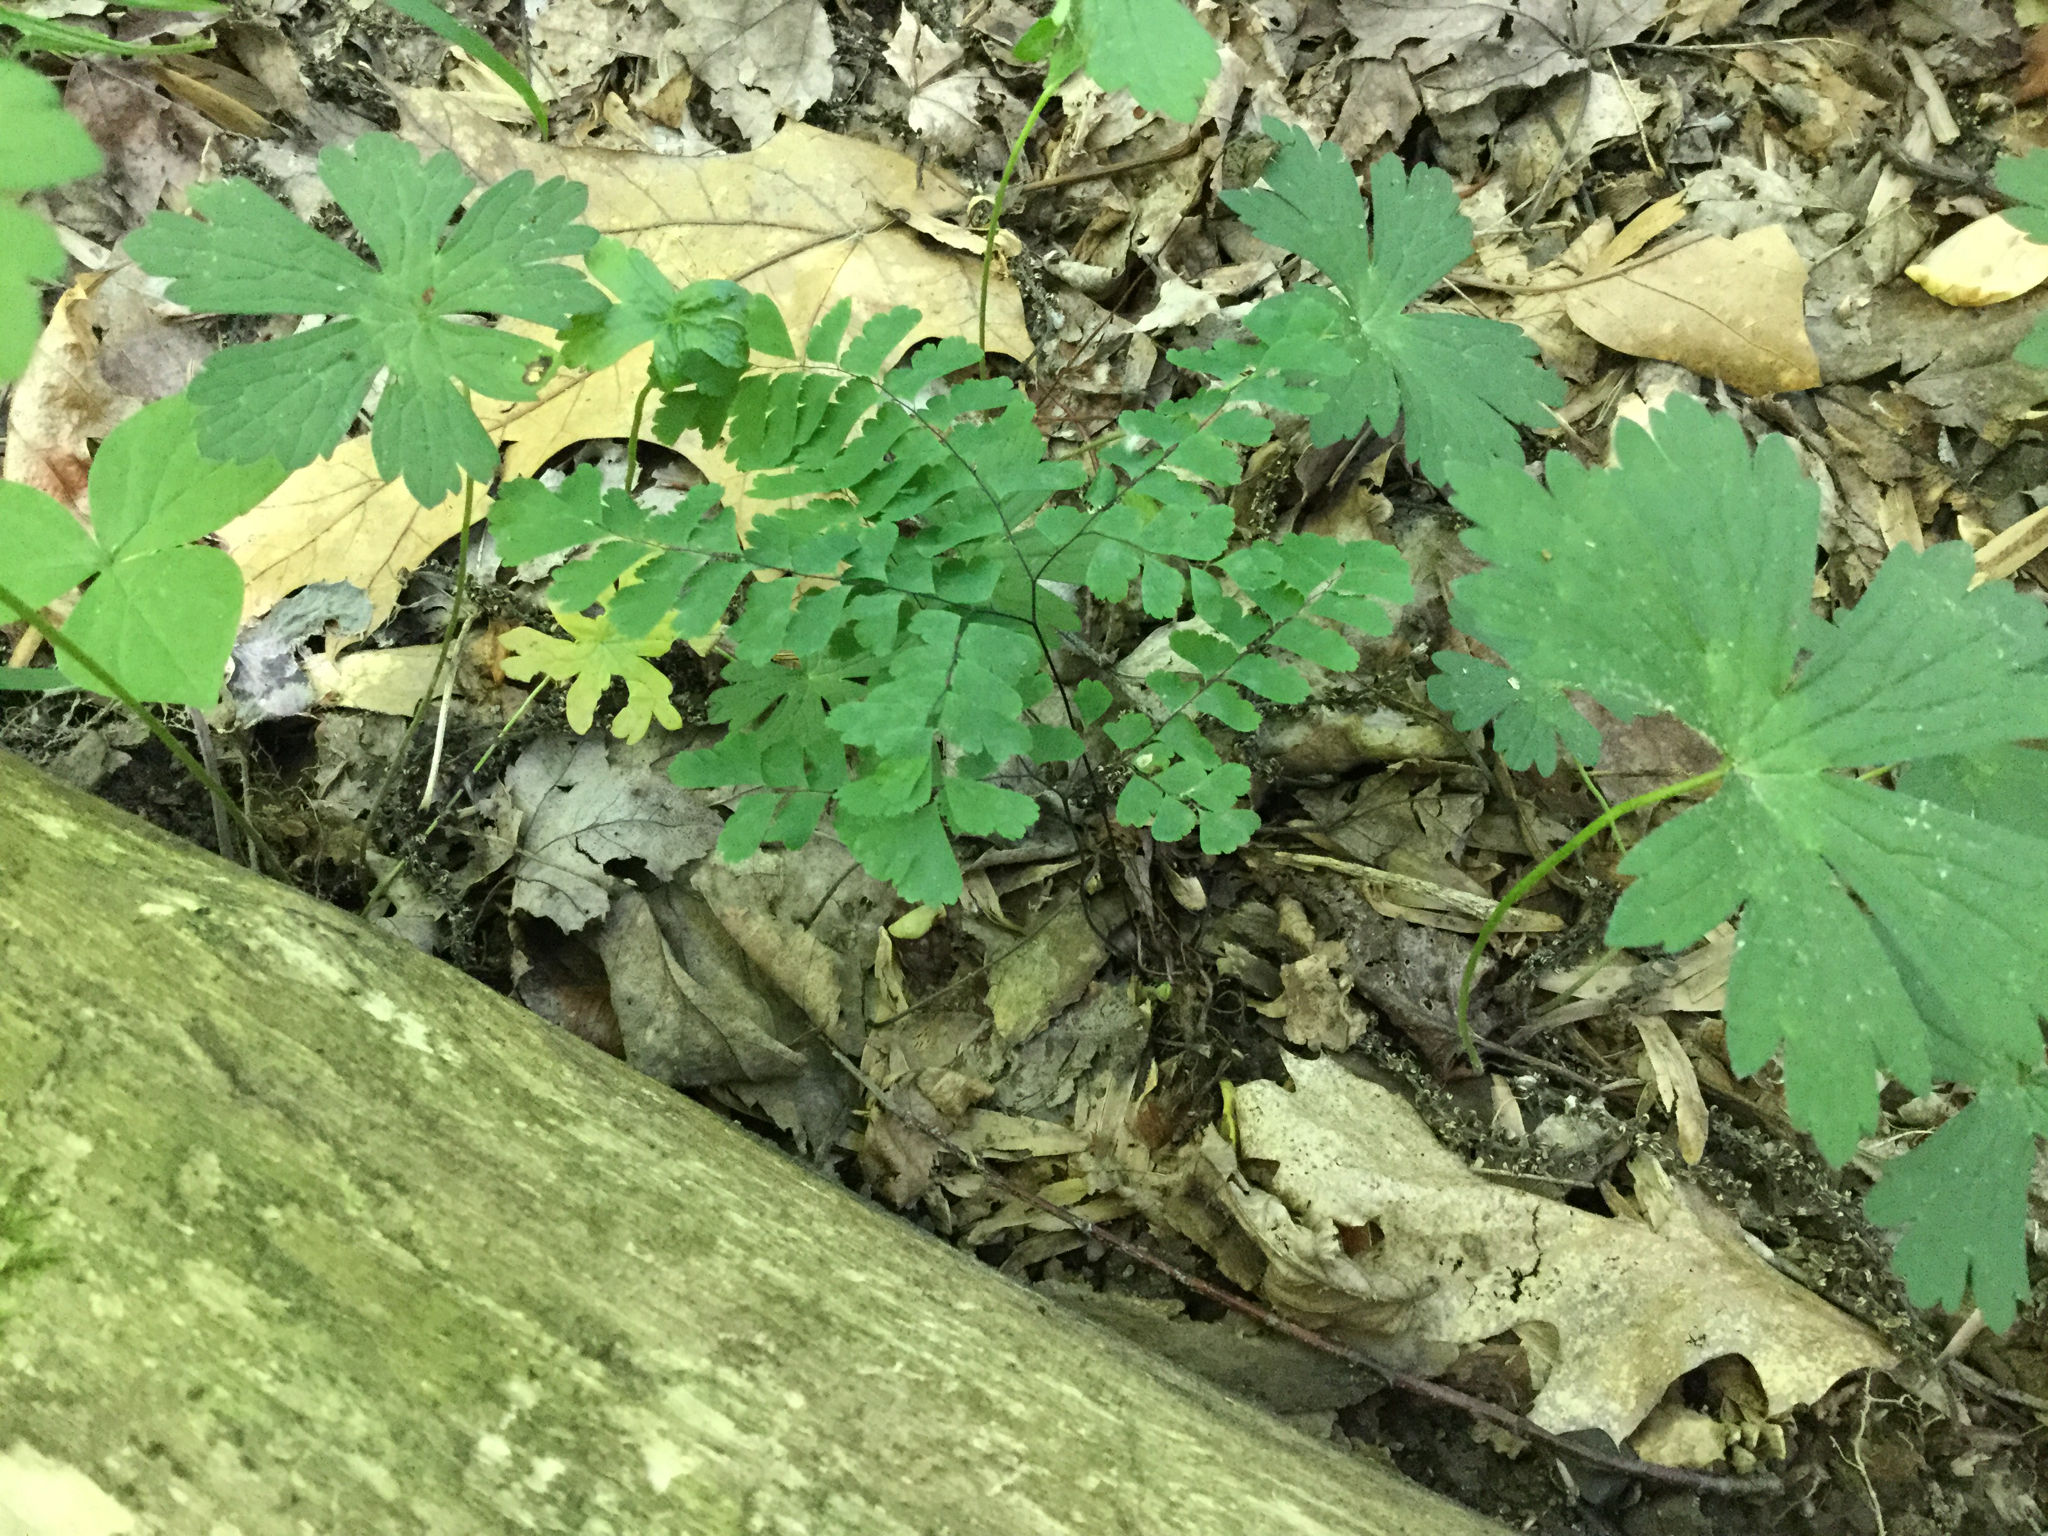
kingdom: Plantae
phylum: Tracheophyta
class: Polypodiopsida
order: Polypodiales
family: Pteridaceae
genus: Adiantum
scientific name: Adiantum pedatum
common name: Five-finger fern
